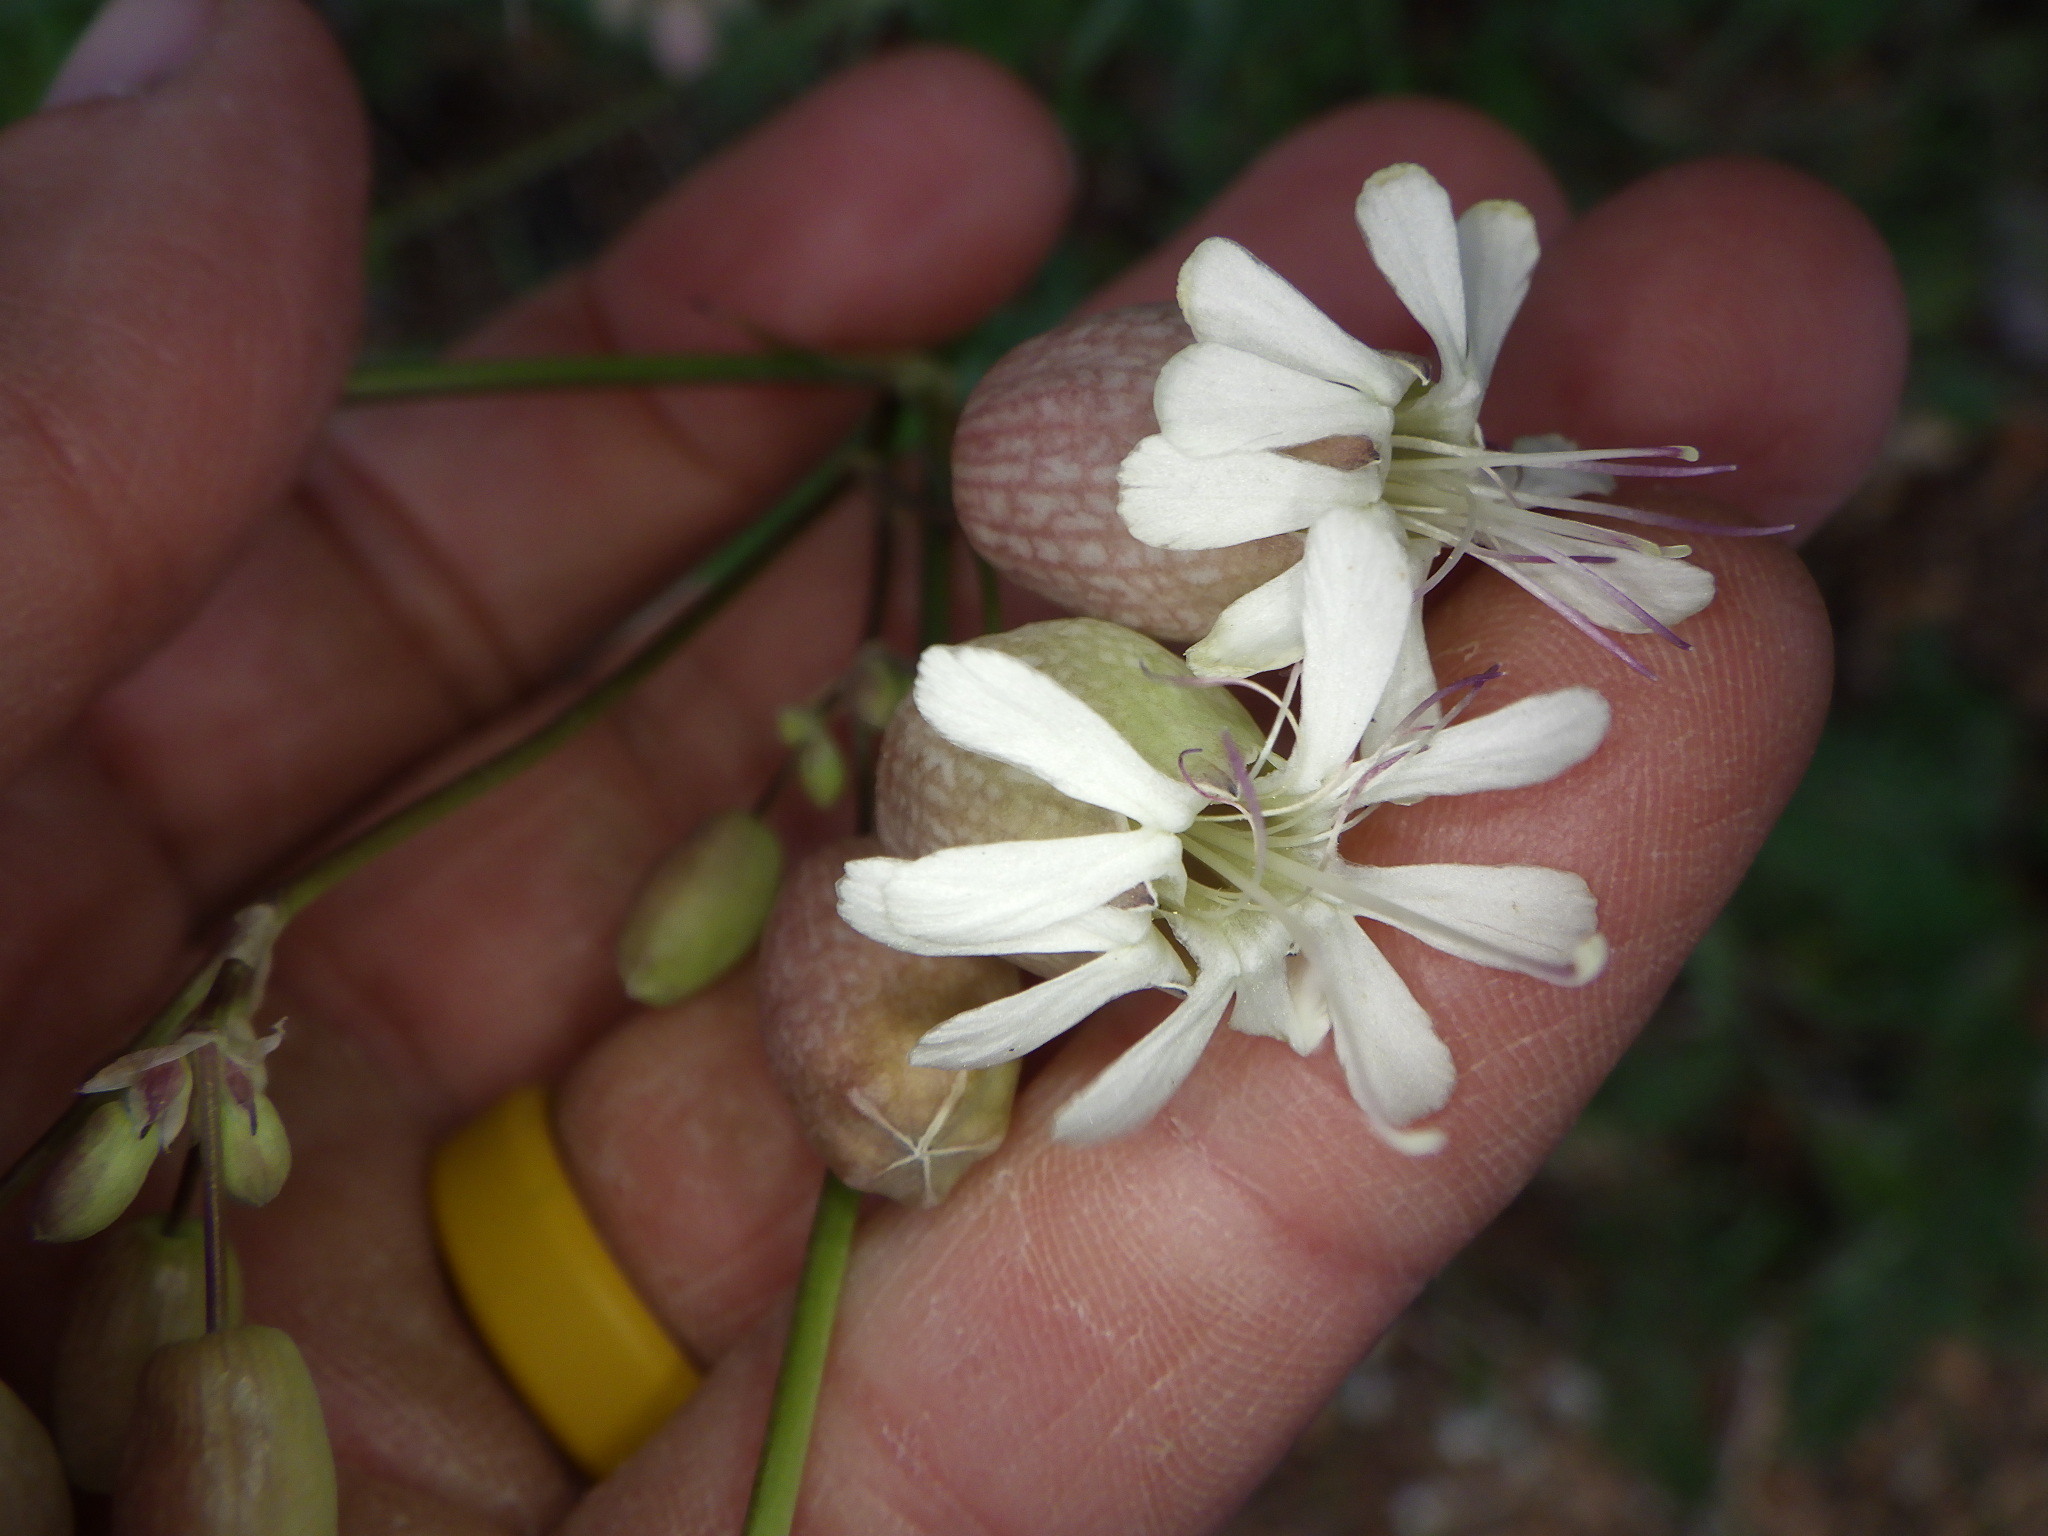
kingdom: Plantae
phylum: Tracheophyta
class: Magnoliopsida
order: Caryophyllales
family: Caryophyllaceae
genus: Silene
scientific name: Silene vulgaris
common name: Bladder campion
